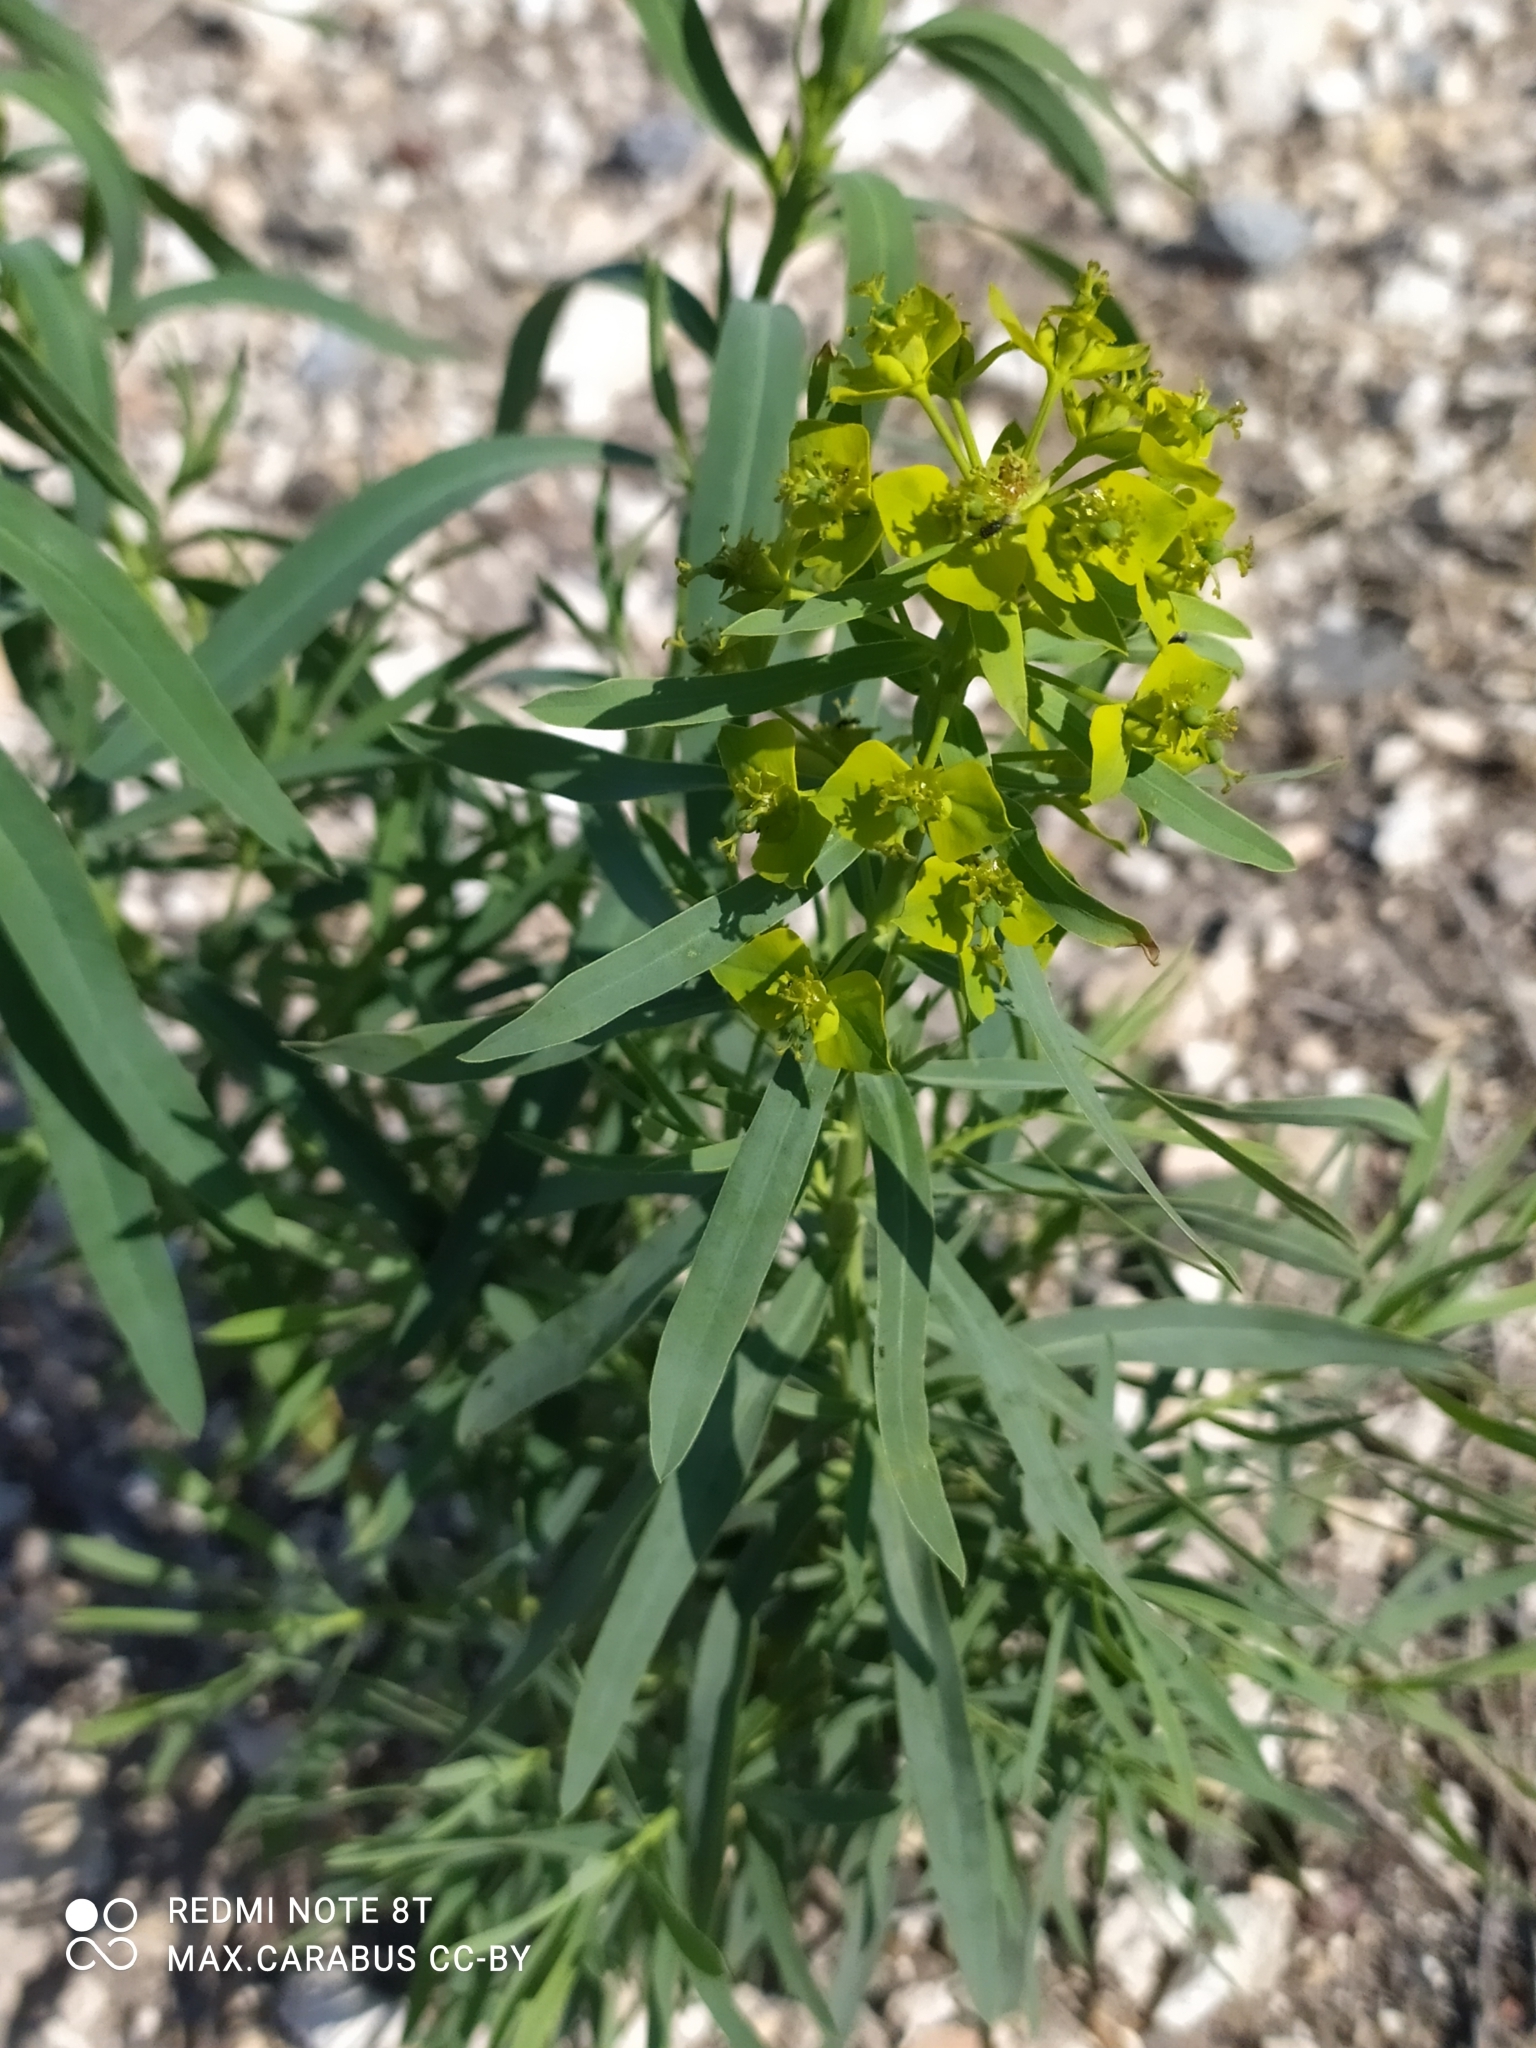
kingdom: Plantae
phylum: Tracheophyta
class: Magnoliopsida
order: Malpighiales
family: Euphorbiaceae
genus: Euphorbia
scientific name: Euphorbia virgata
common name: Leafy spurge
